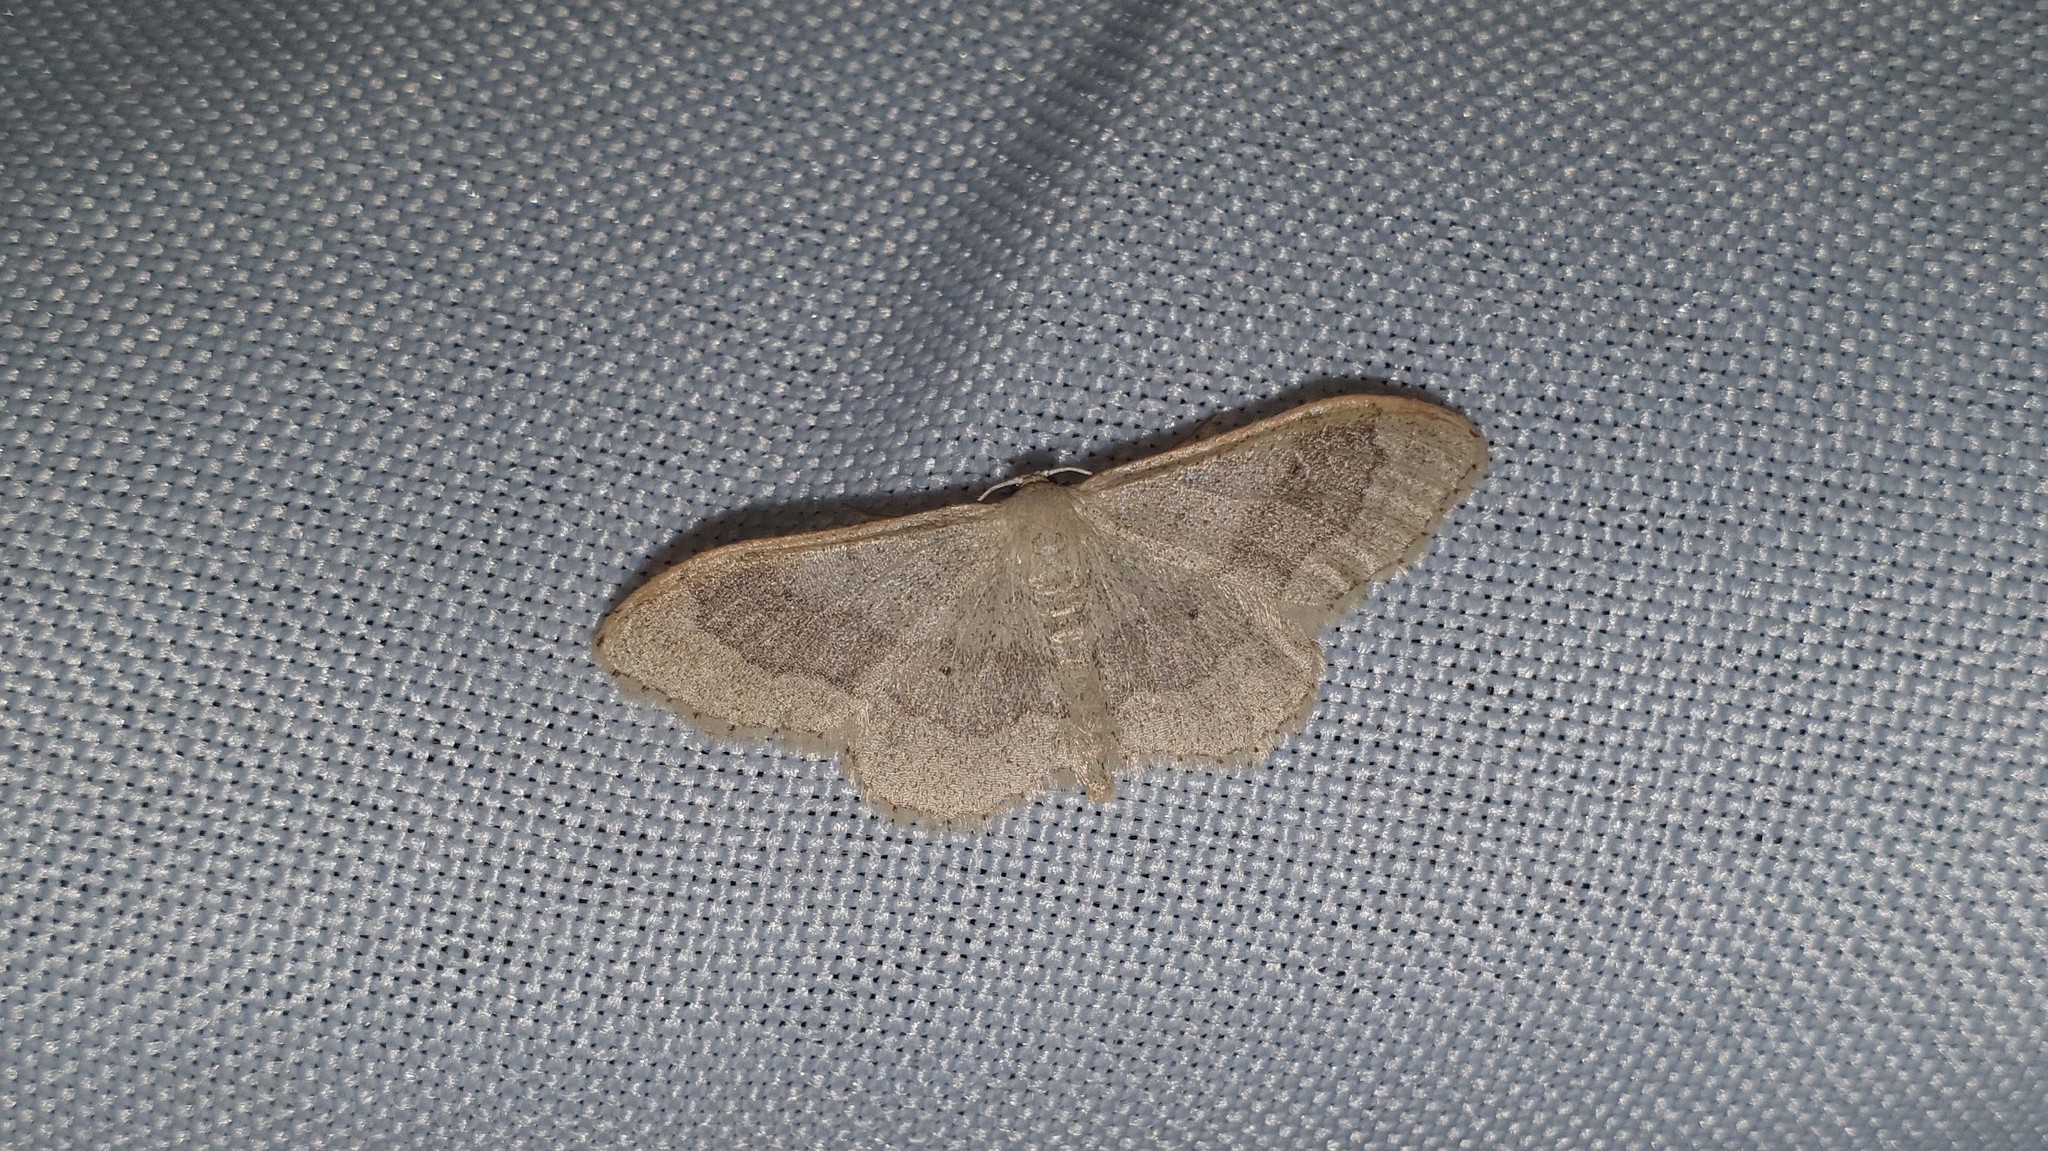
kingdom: Animalia
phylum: Arthropoda
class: Insecta
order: Lepidoptera
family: Geometridae
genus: Idaea
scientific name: Idaea aversata
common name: Riband wave
